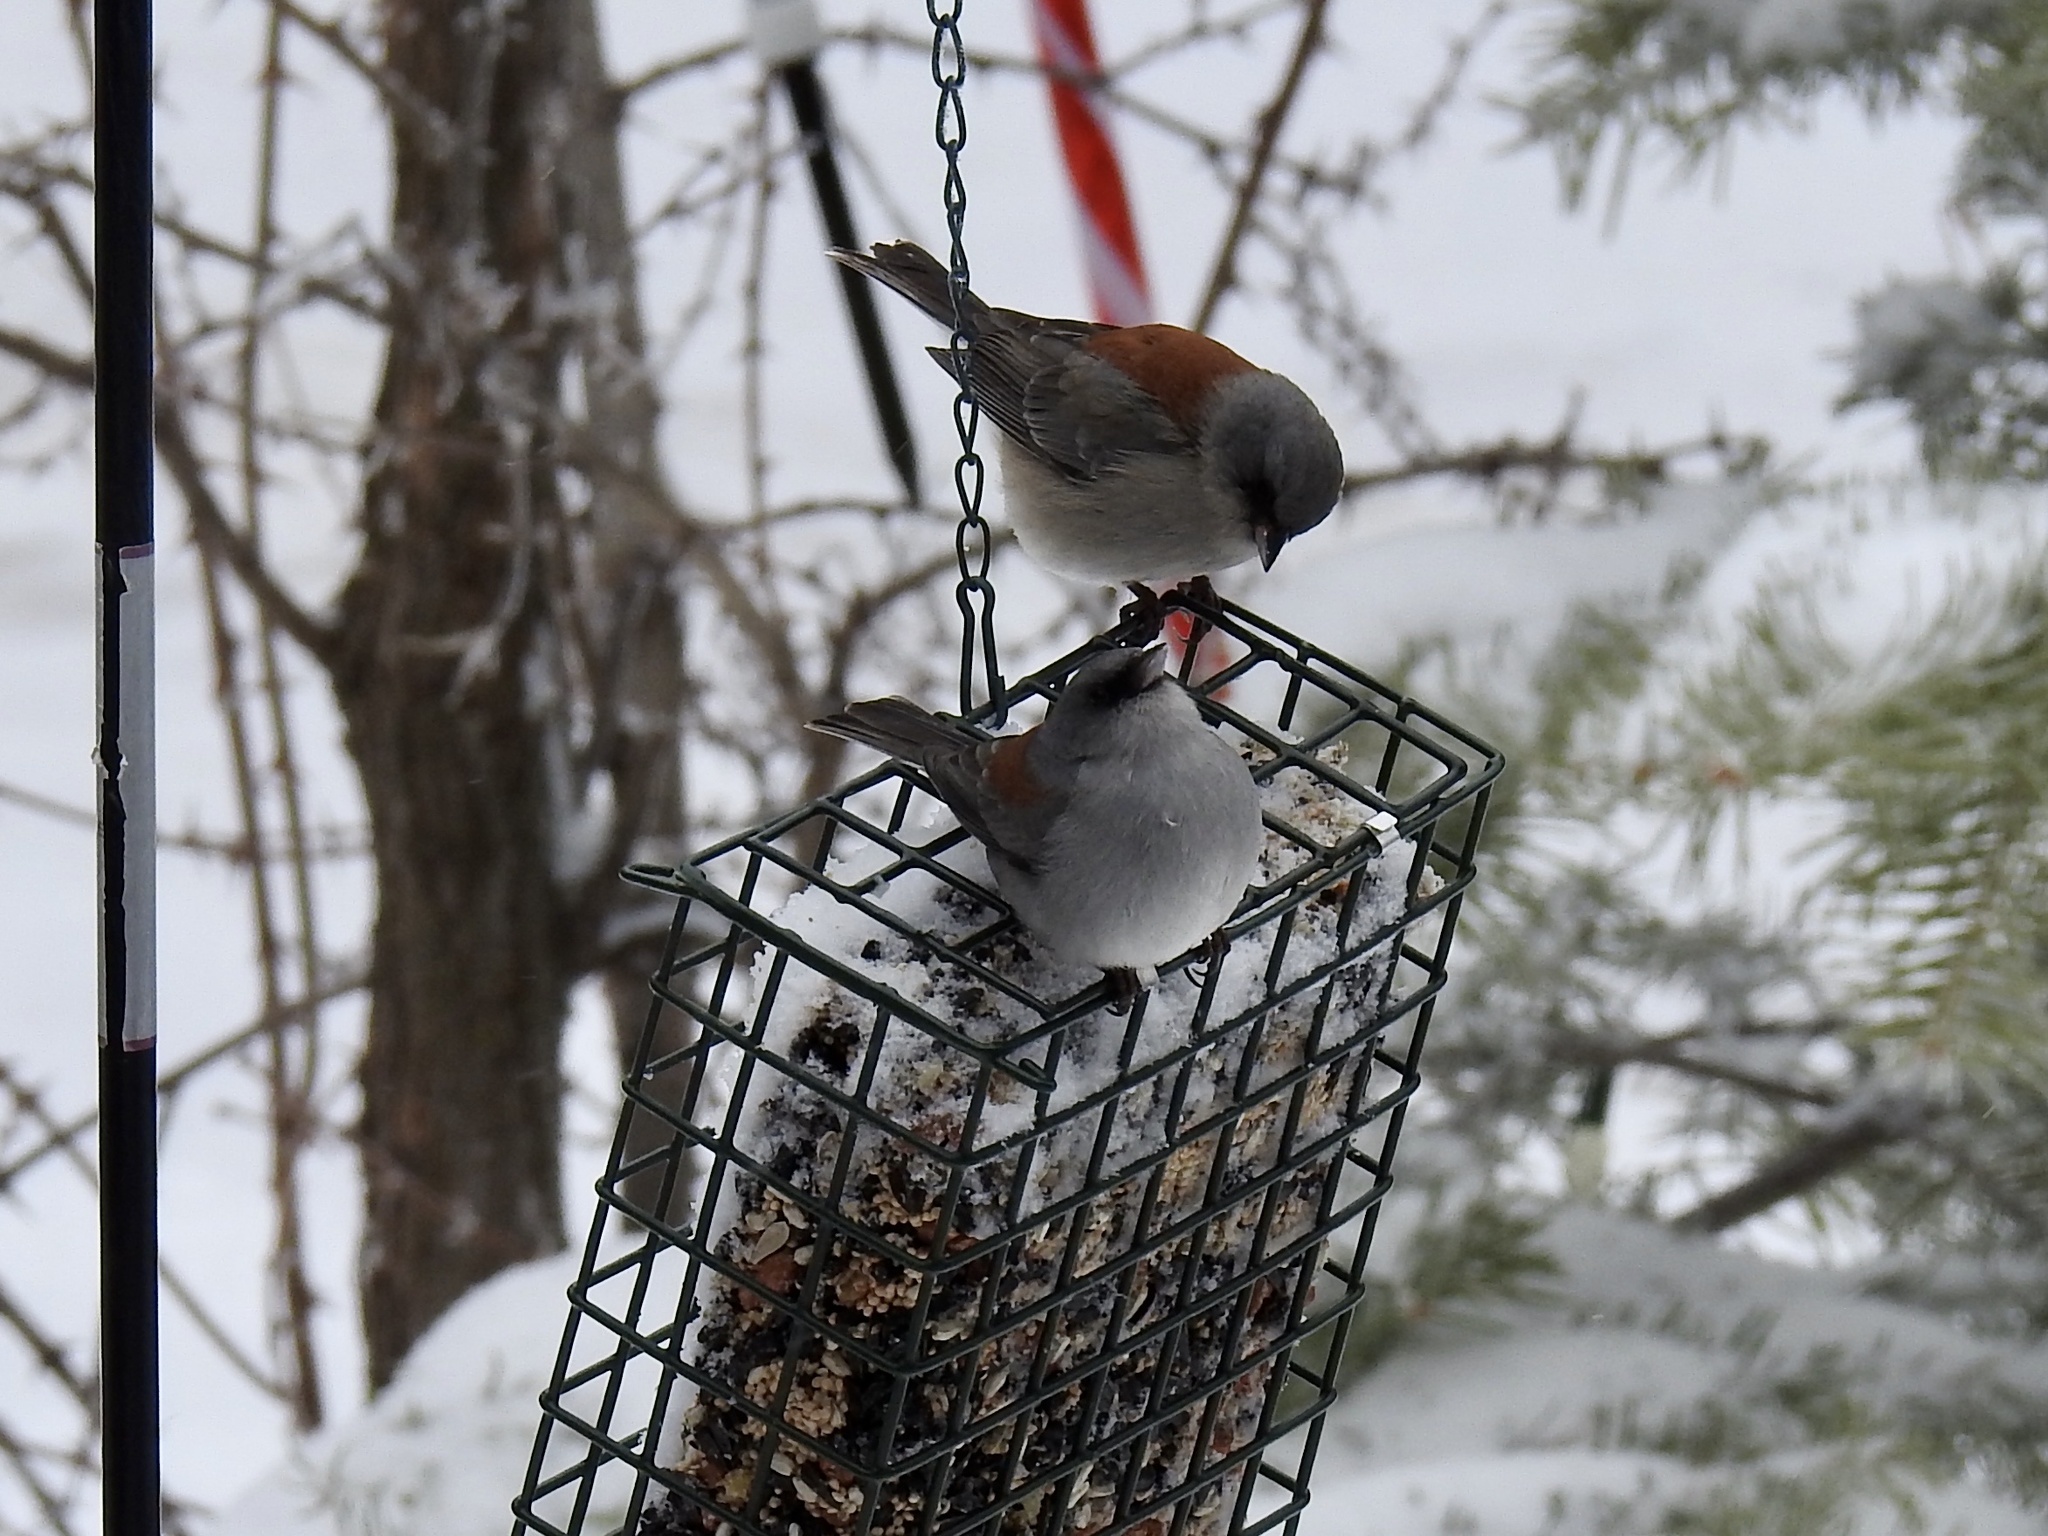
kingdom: Animalia
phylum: Chordata
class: Aves
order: Passeriformes
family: Passerellidae
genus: Junco
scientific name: Junco hyemalis
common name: Dark-eyed junco
